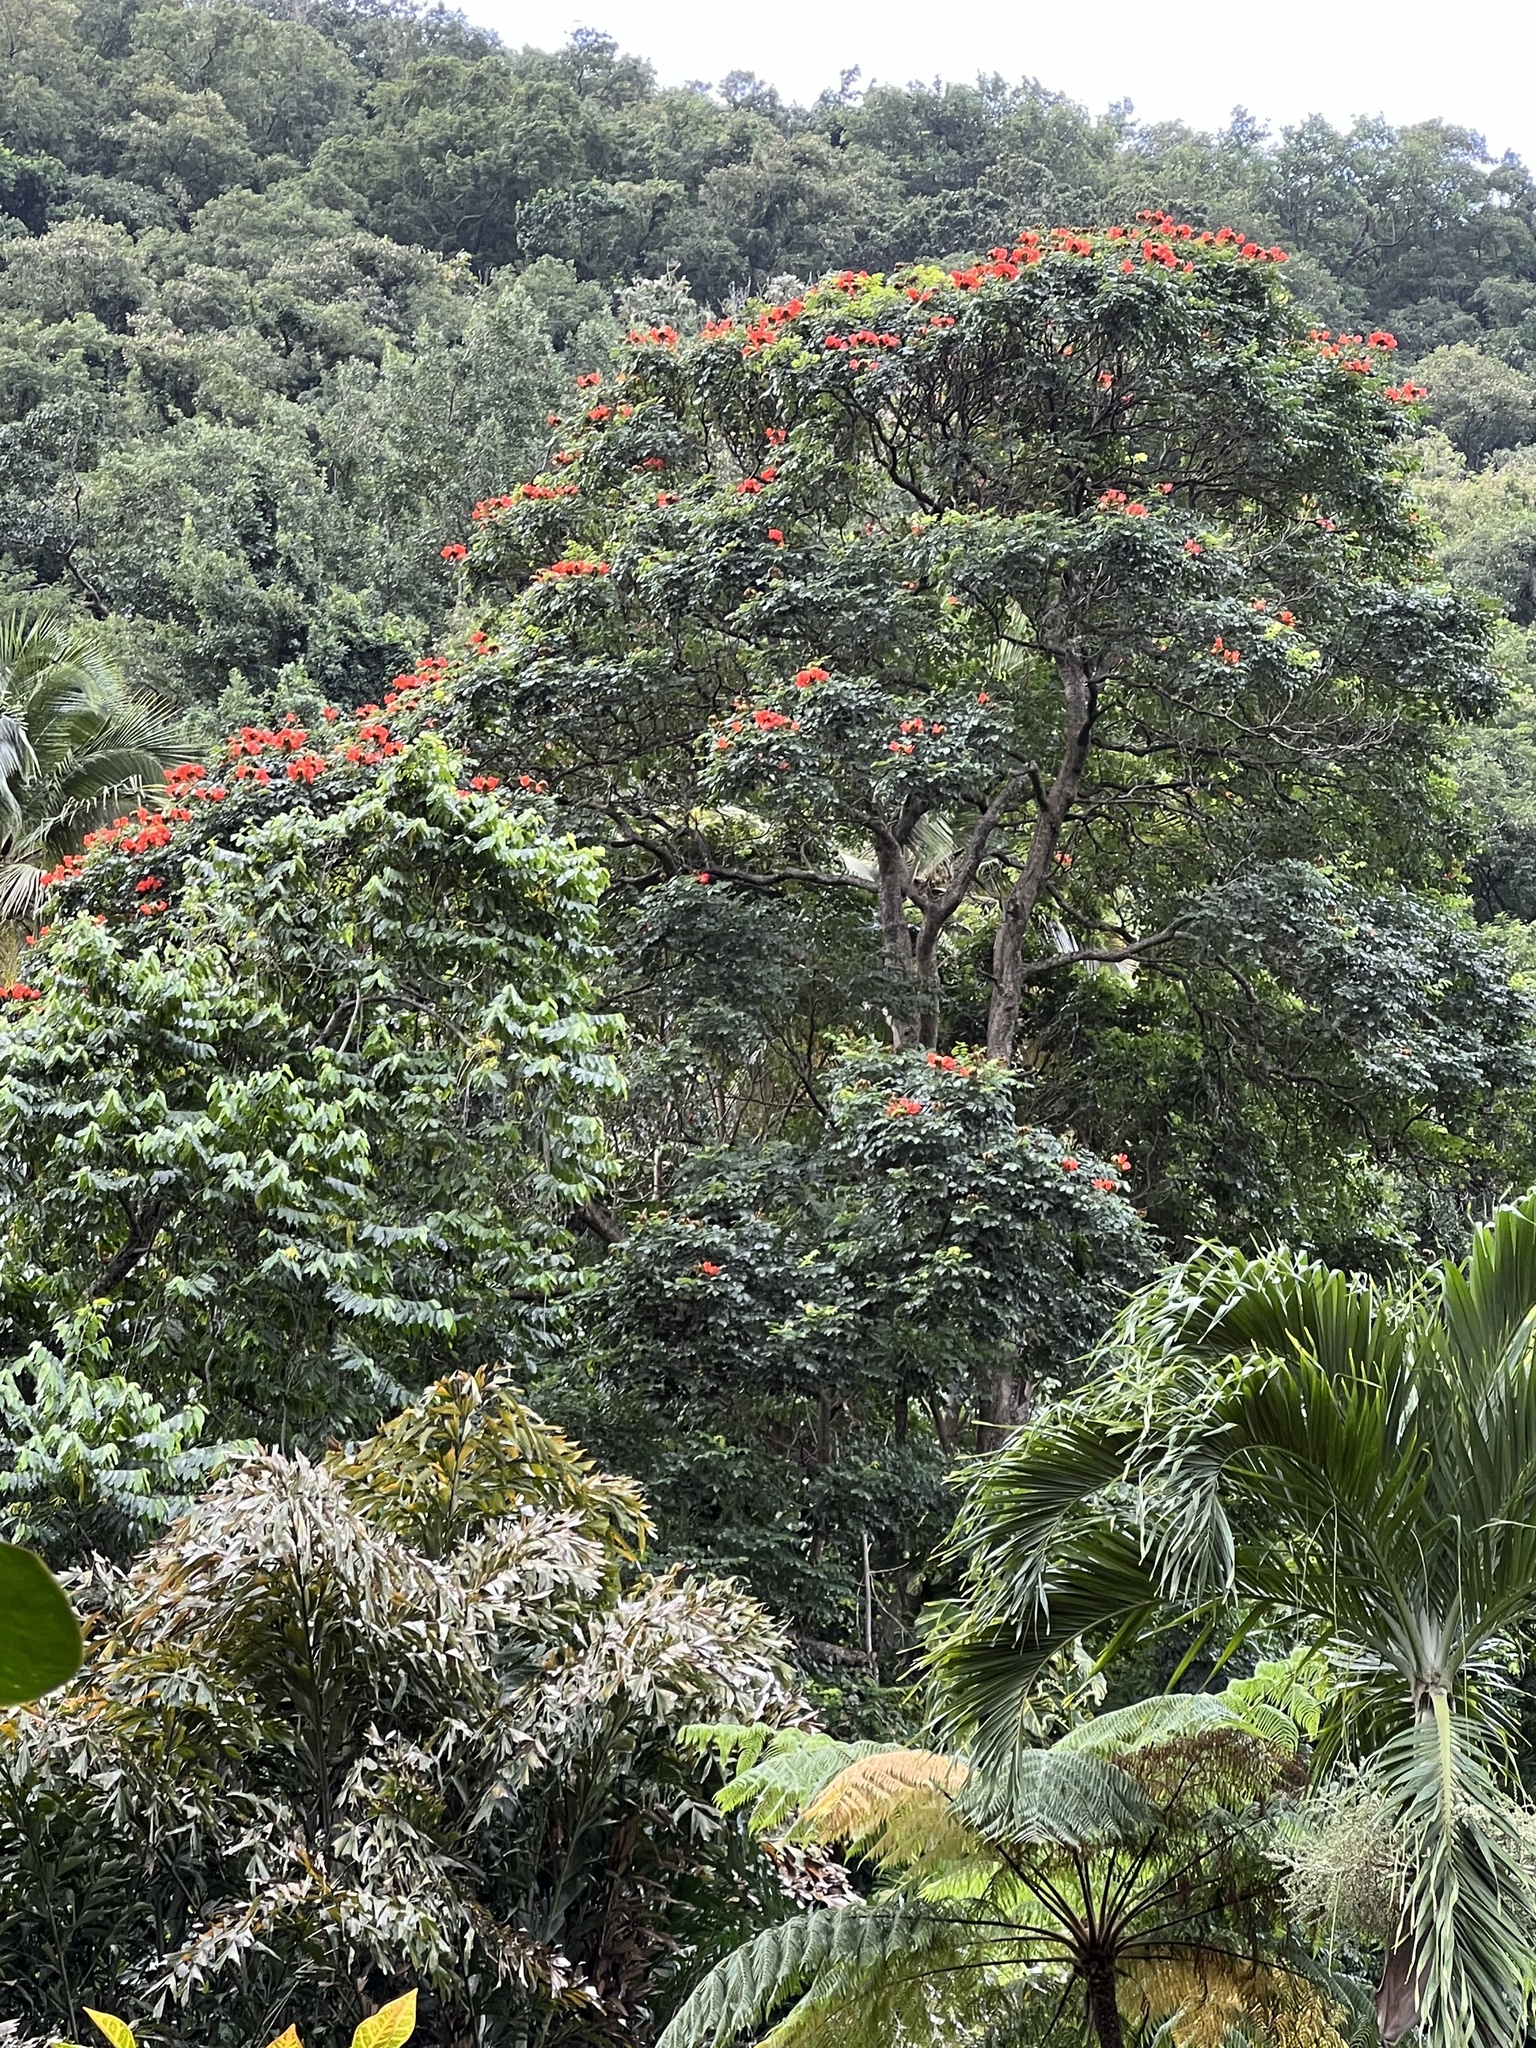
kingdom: Plantae
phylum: Tracheophyta
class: Magnoliopsida
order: Lamiales
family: Bignoniaceae
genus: Spathodea
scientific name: Spathodea campanulata
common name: African tuliptree
